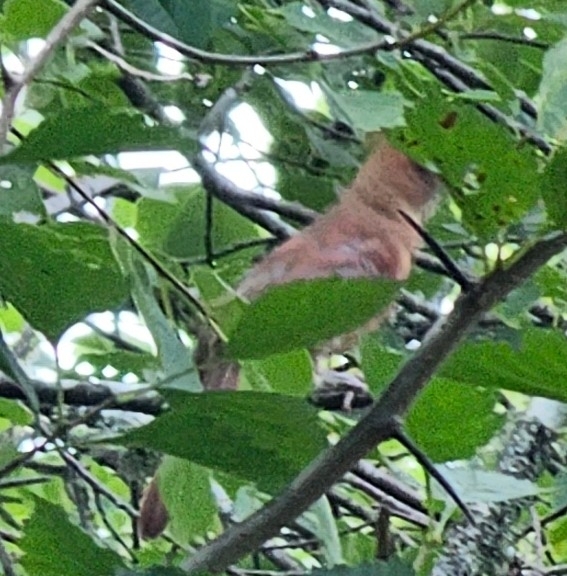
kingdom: Animalia
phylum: Chordata
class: Aves
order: Passeriformes
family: Cardinalidae
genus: Cardinalis
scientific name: Cardinalis cardinalis
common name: Northern cardinal
